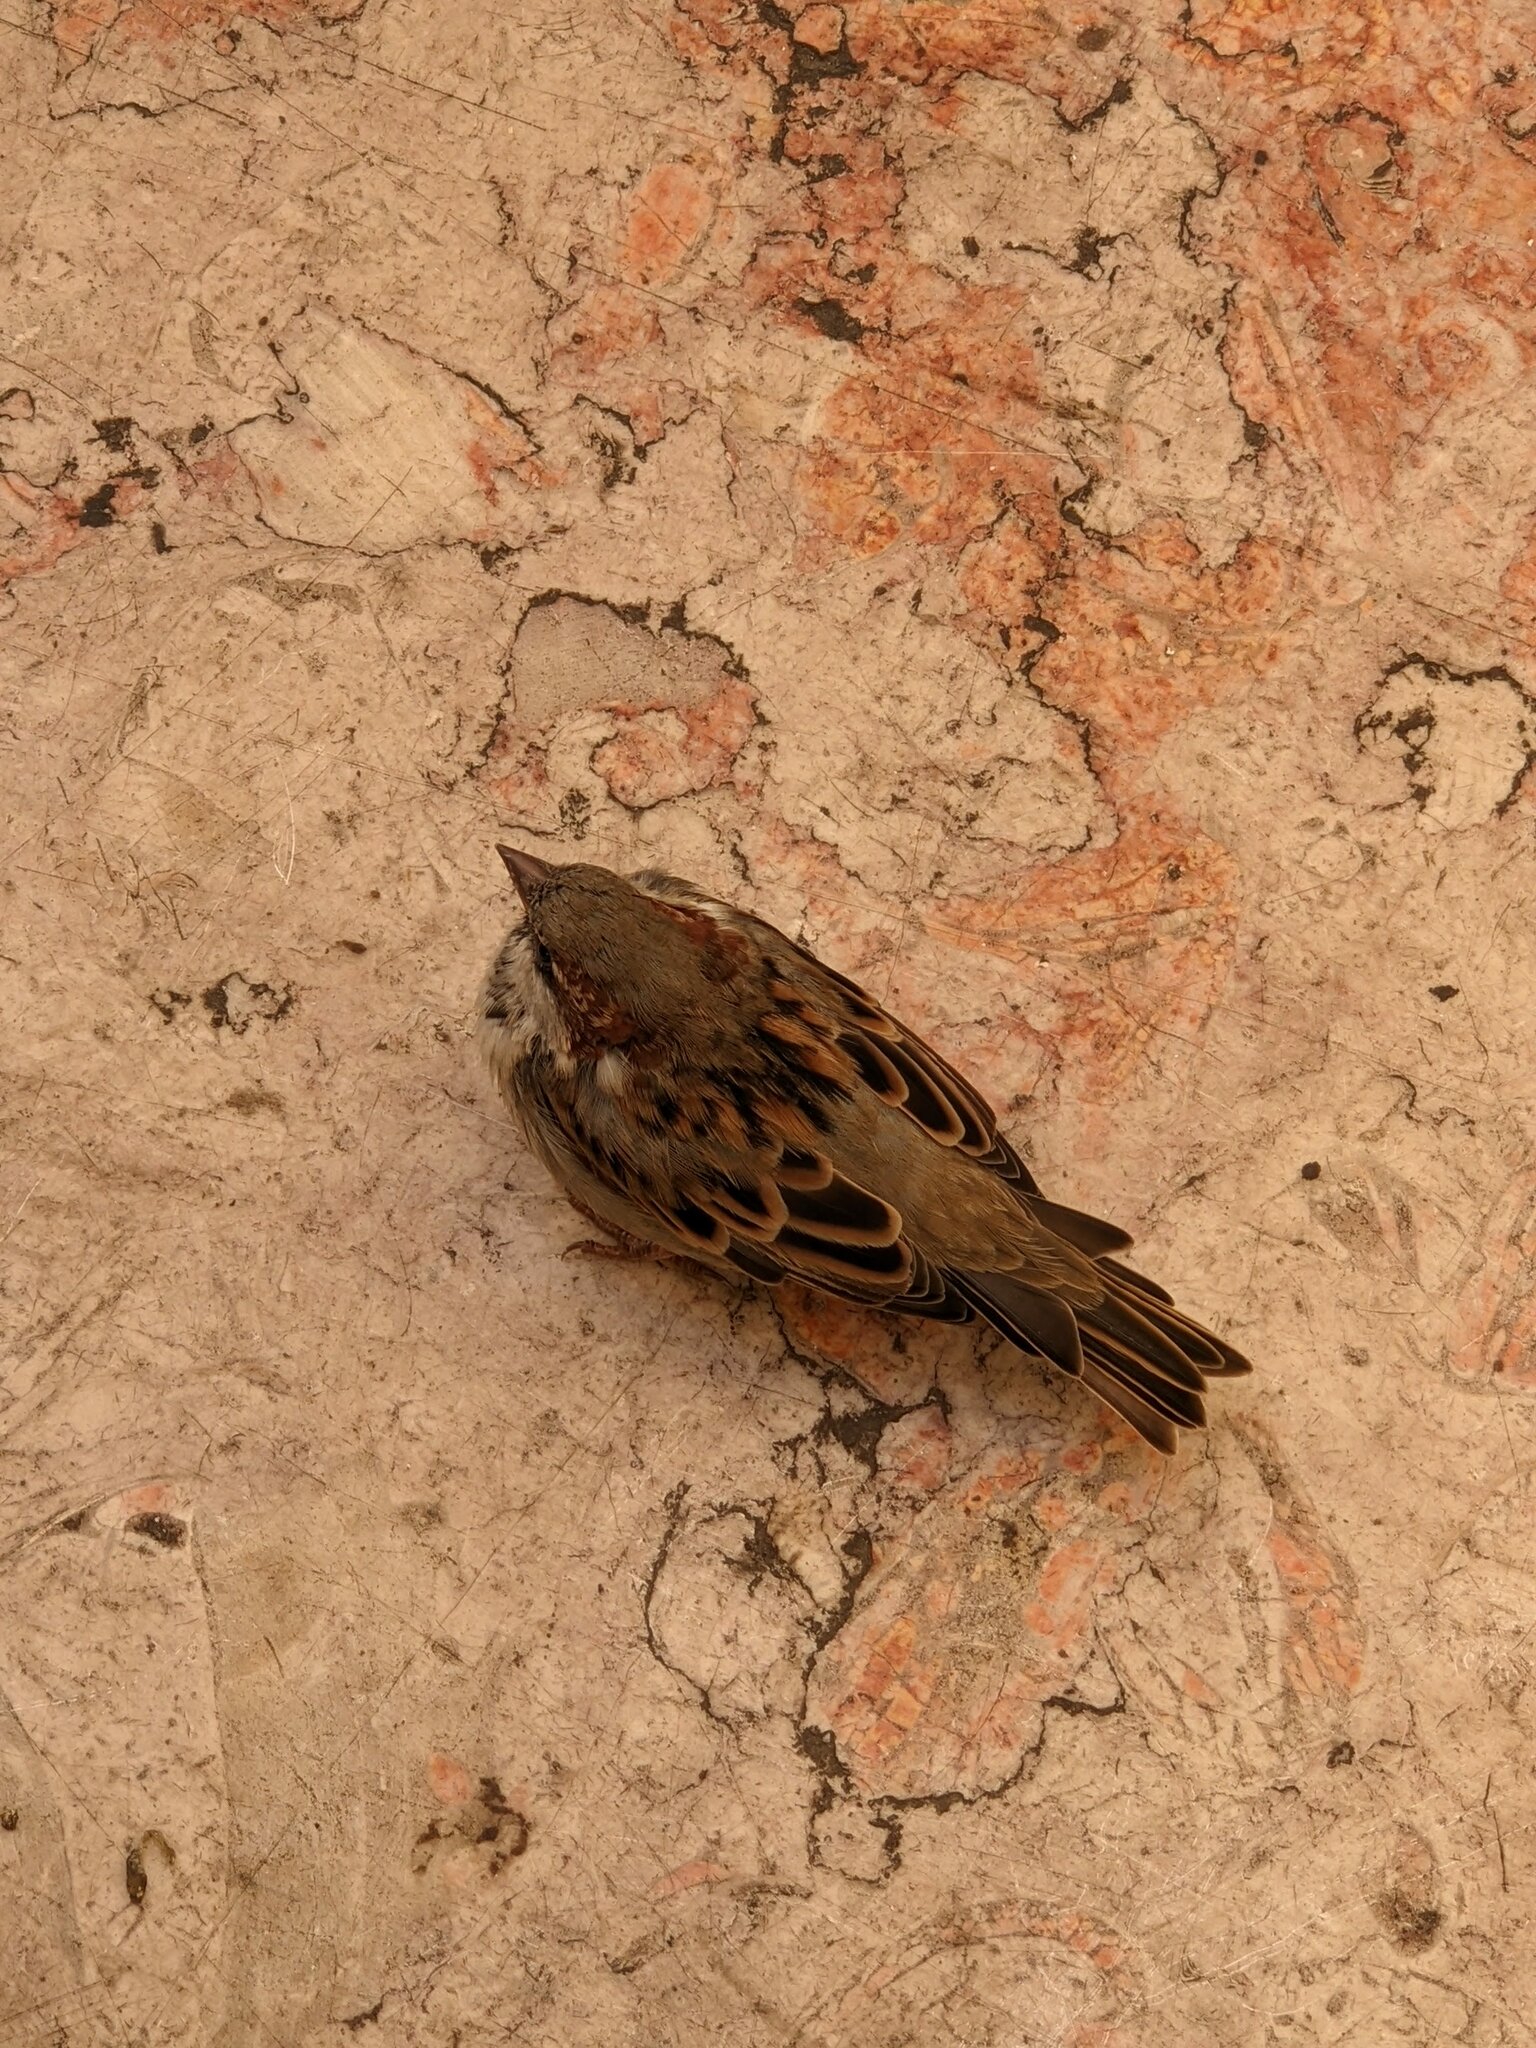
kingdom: Animalia
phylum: Chordata
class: Aves
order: Passeriformes
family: Passeridae
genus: Passer
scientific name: Passer domesticus
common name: House sparrow
